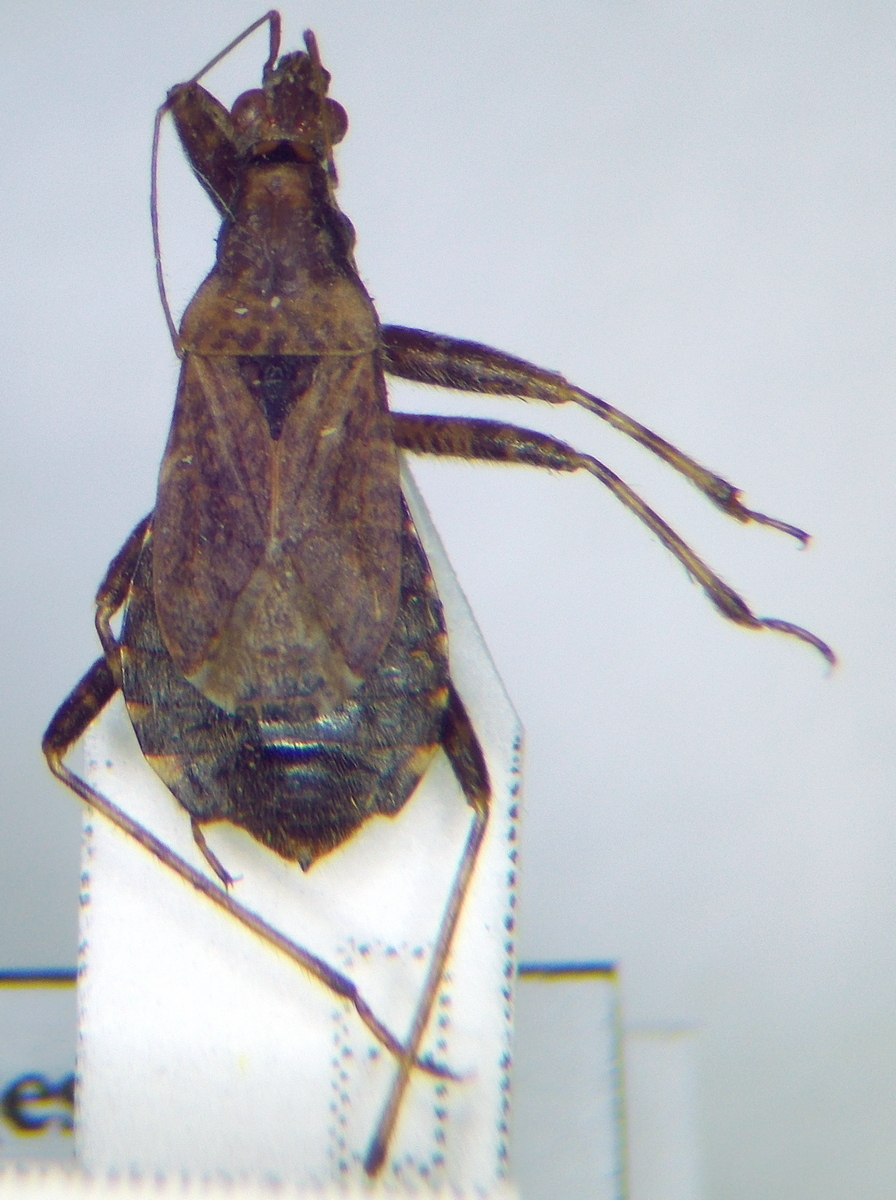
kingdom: Animalia
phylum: Arthropoda
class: Insecta
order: Hemiptera
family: Nabidae
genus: Himacerus
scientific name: Himacerus mirmicoides
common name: Ant damsel bug
